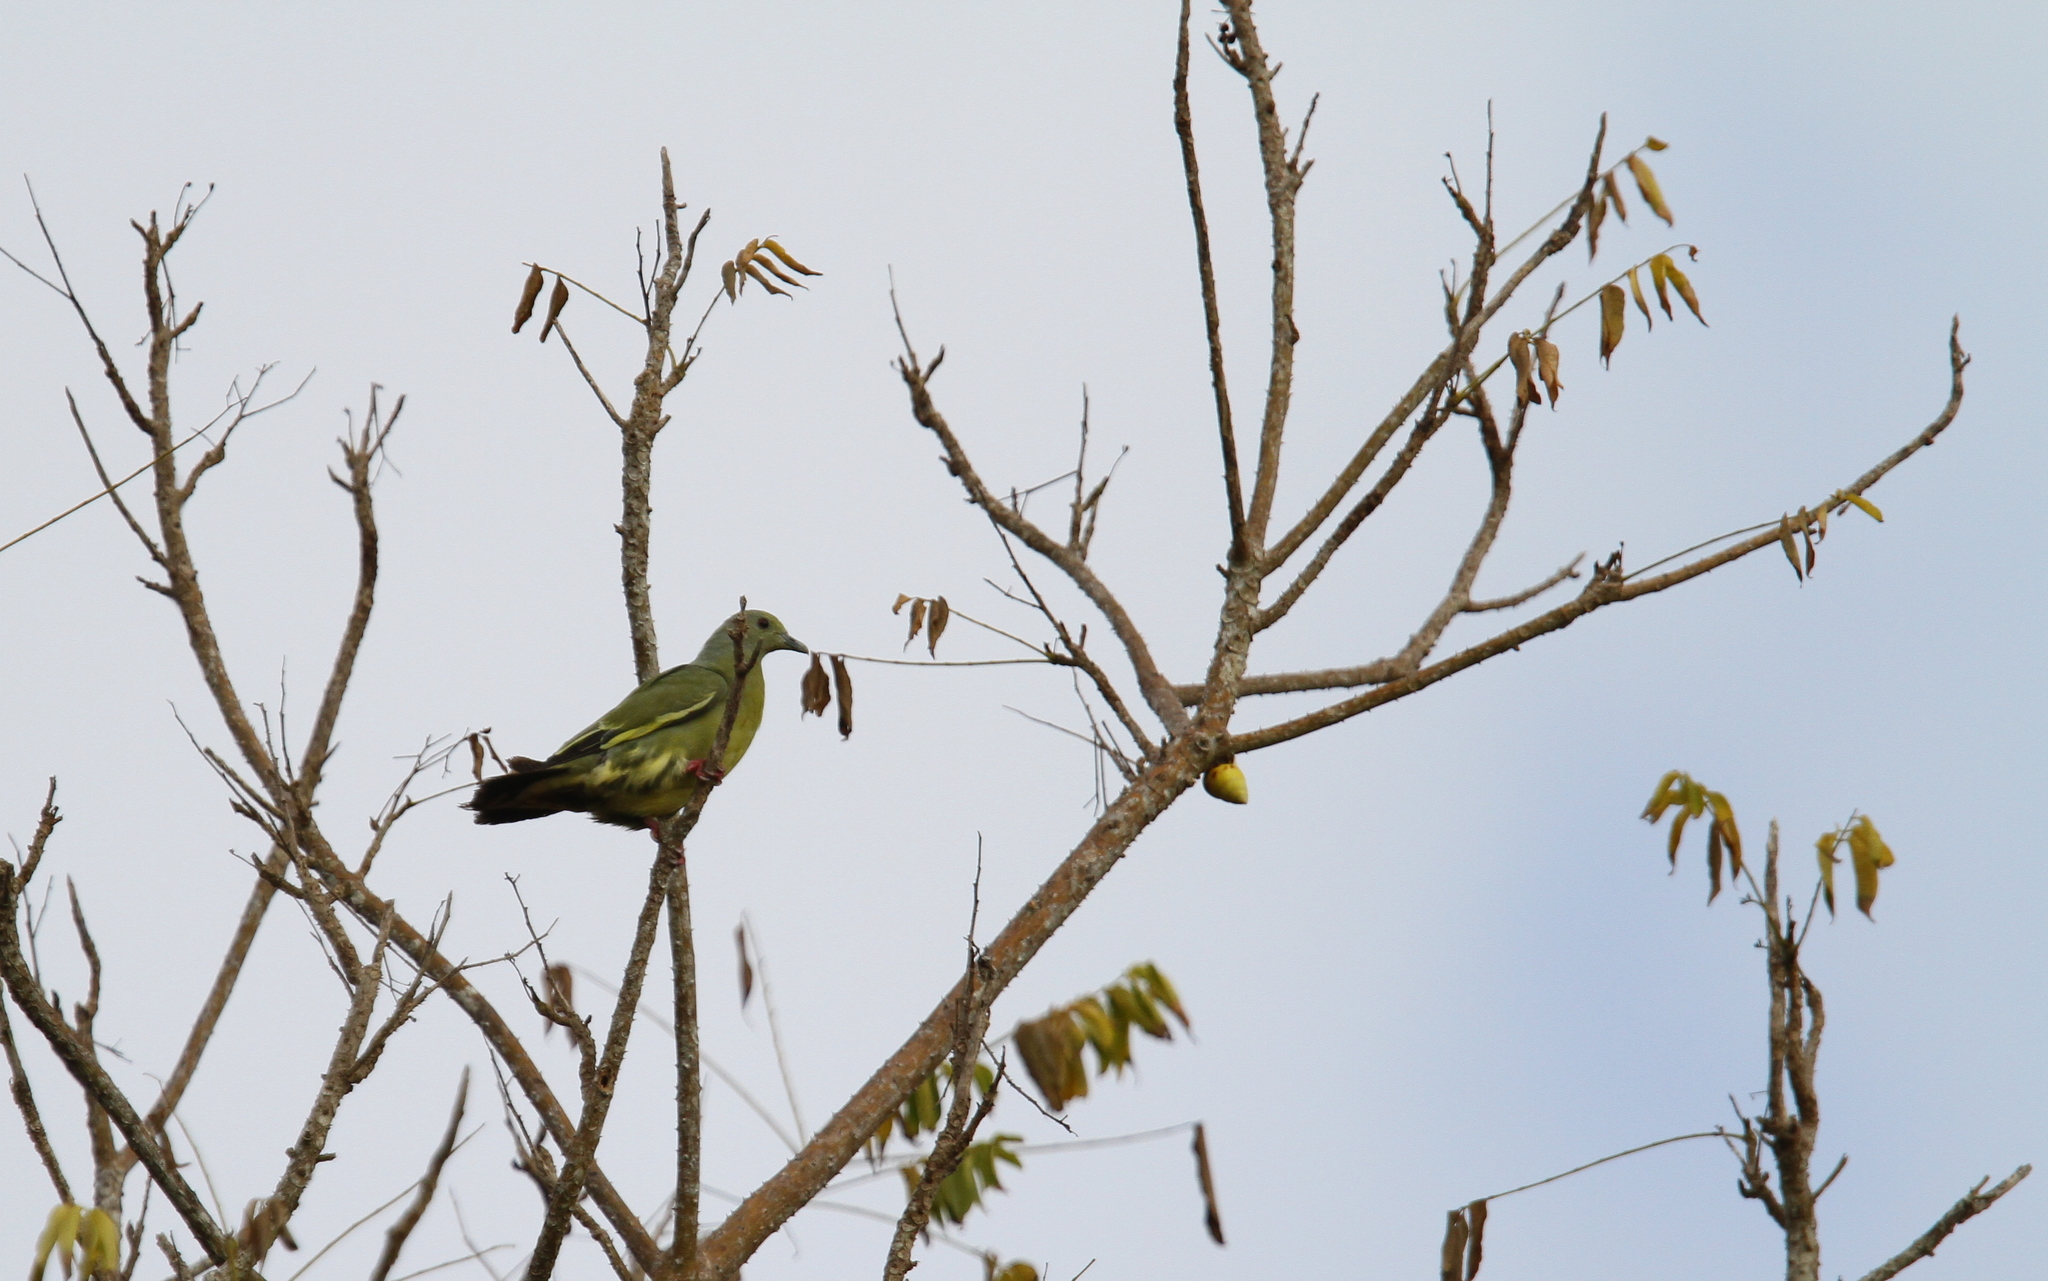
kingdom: Animalia
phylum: Chordata
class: Aves
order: Columbiformes
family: Columbidae
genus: Treron
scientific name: Treron vernans
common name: Pink-necked green pigeon
